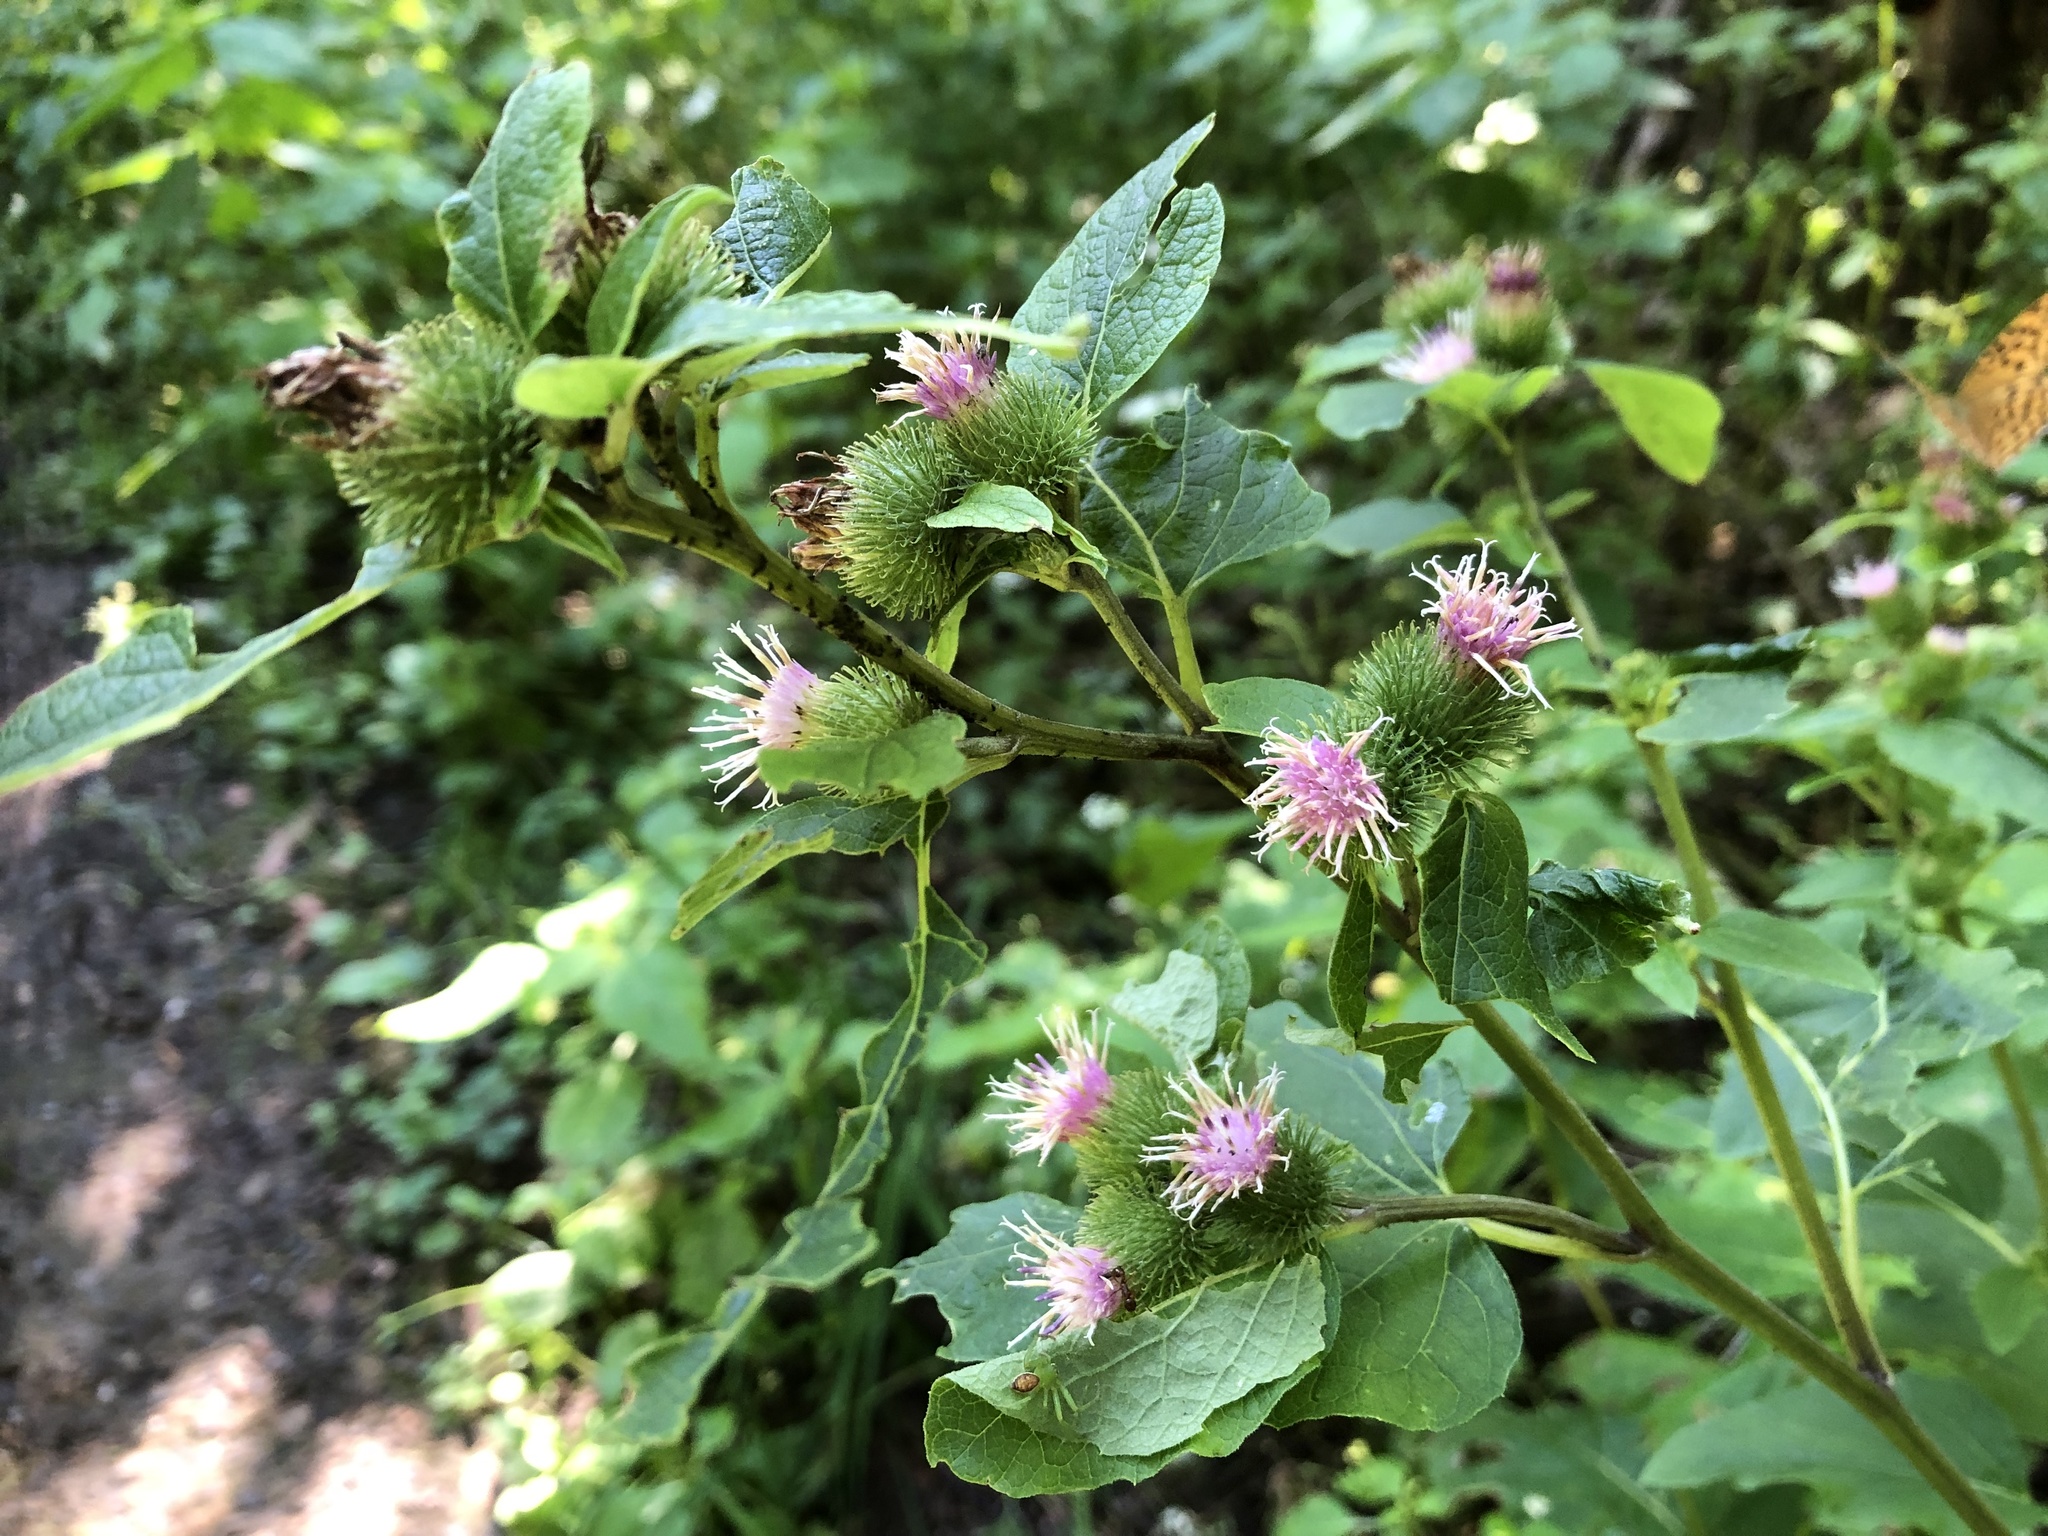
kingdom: Plantae
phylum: Tracheophyta
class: Magnoliopsida
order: Asterales
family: Asteraceae
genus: Arctium
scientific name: Arctium minus
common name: Lesser burdock
